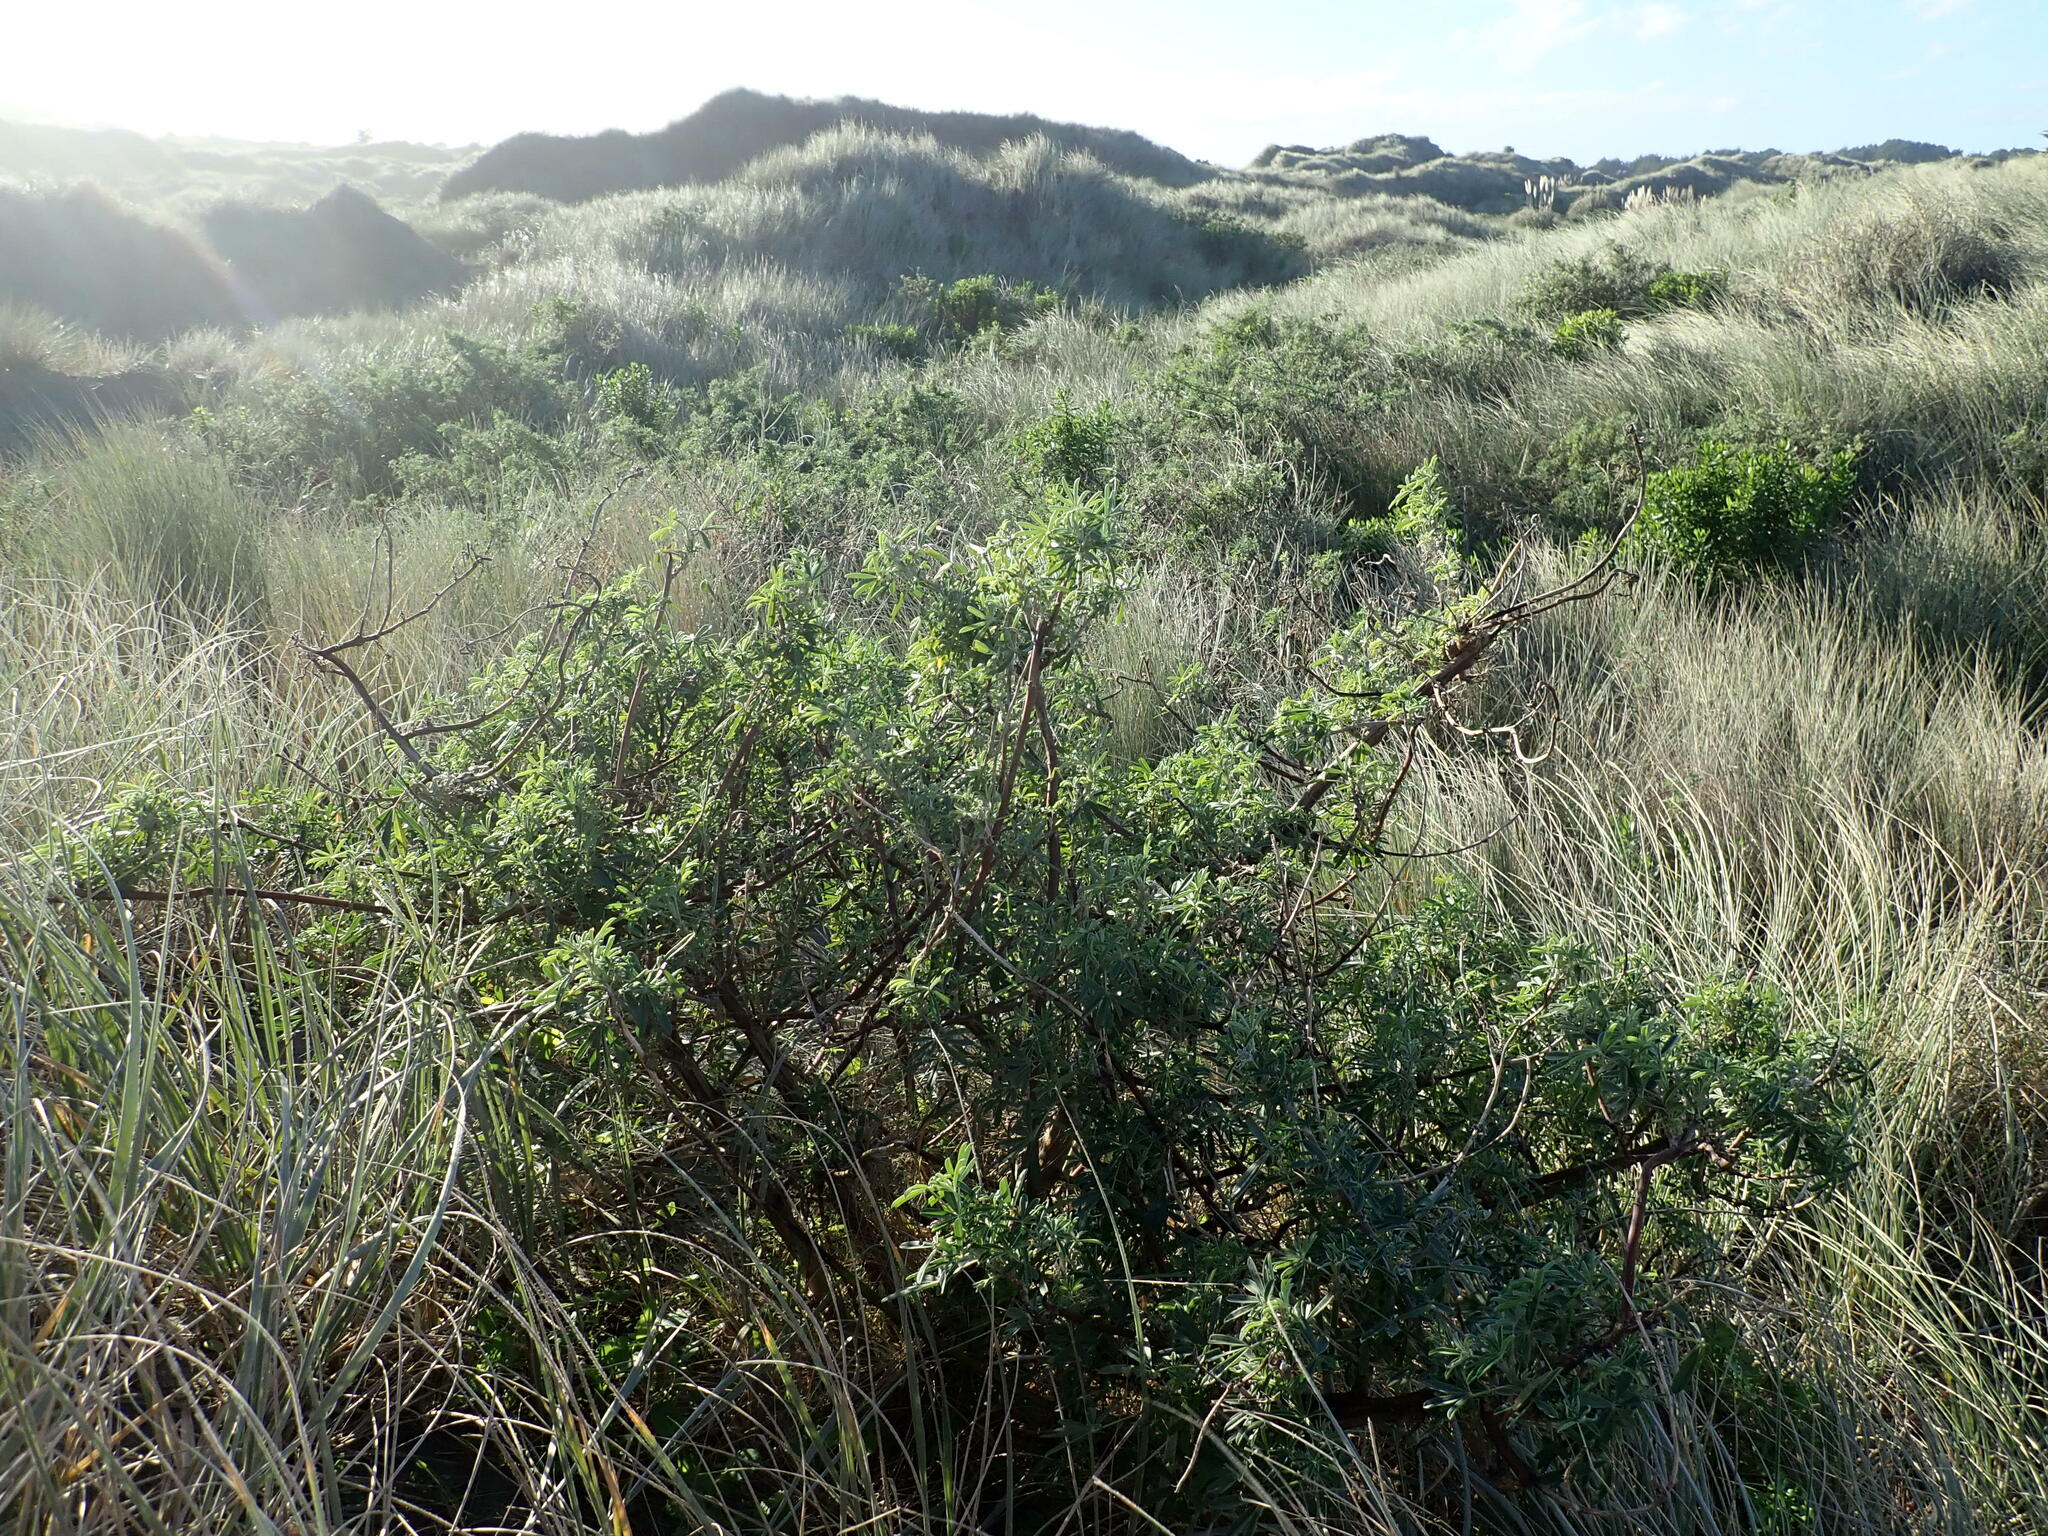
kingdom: Plantae
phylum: Tracheophyta
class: Magnoliopsida
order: Fabales
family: Fabaceae
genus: Lupinus
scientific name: Lupinus arboreus
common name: Yellow bush lupine
